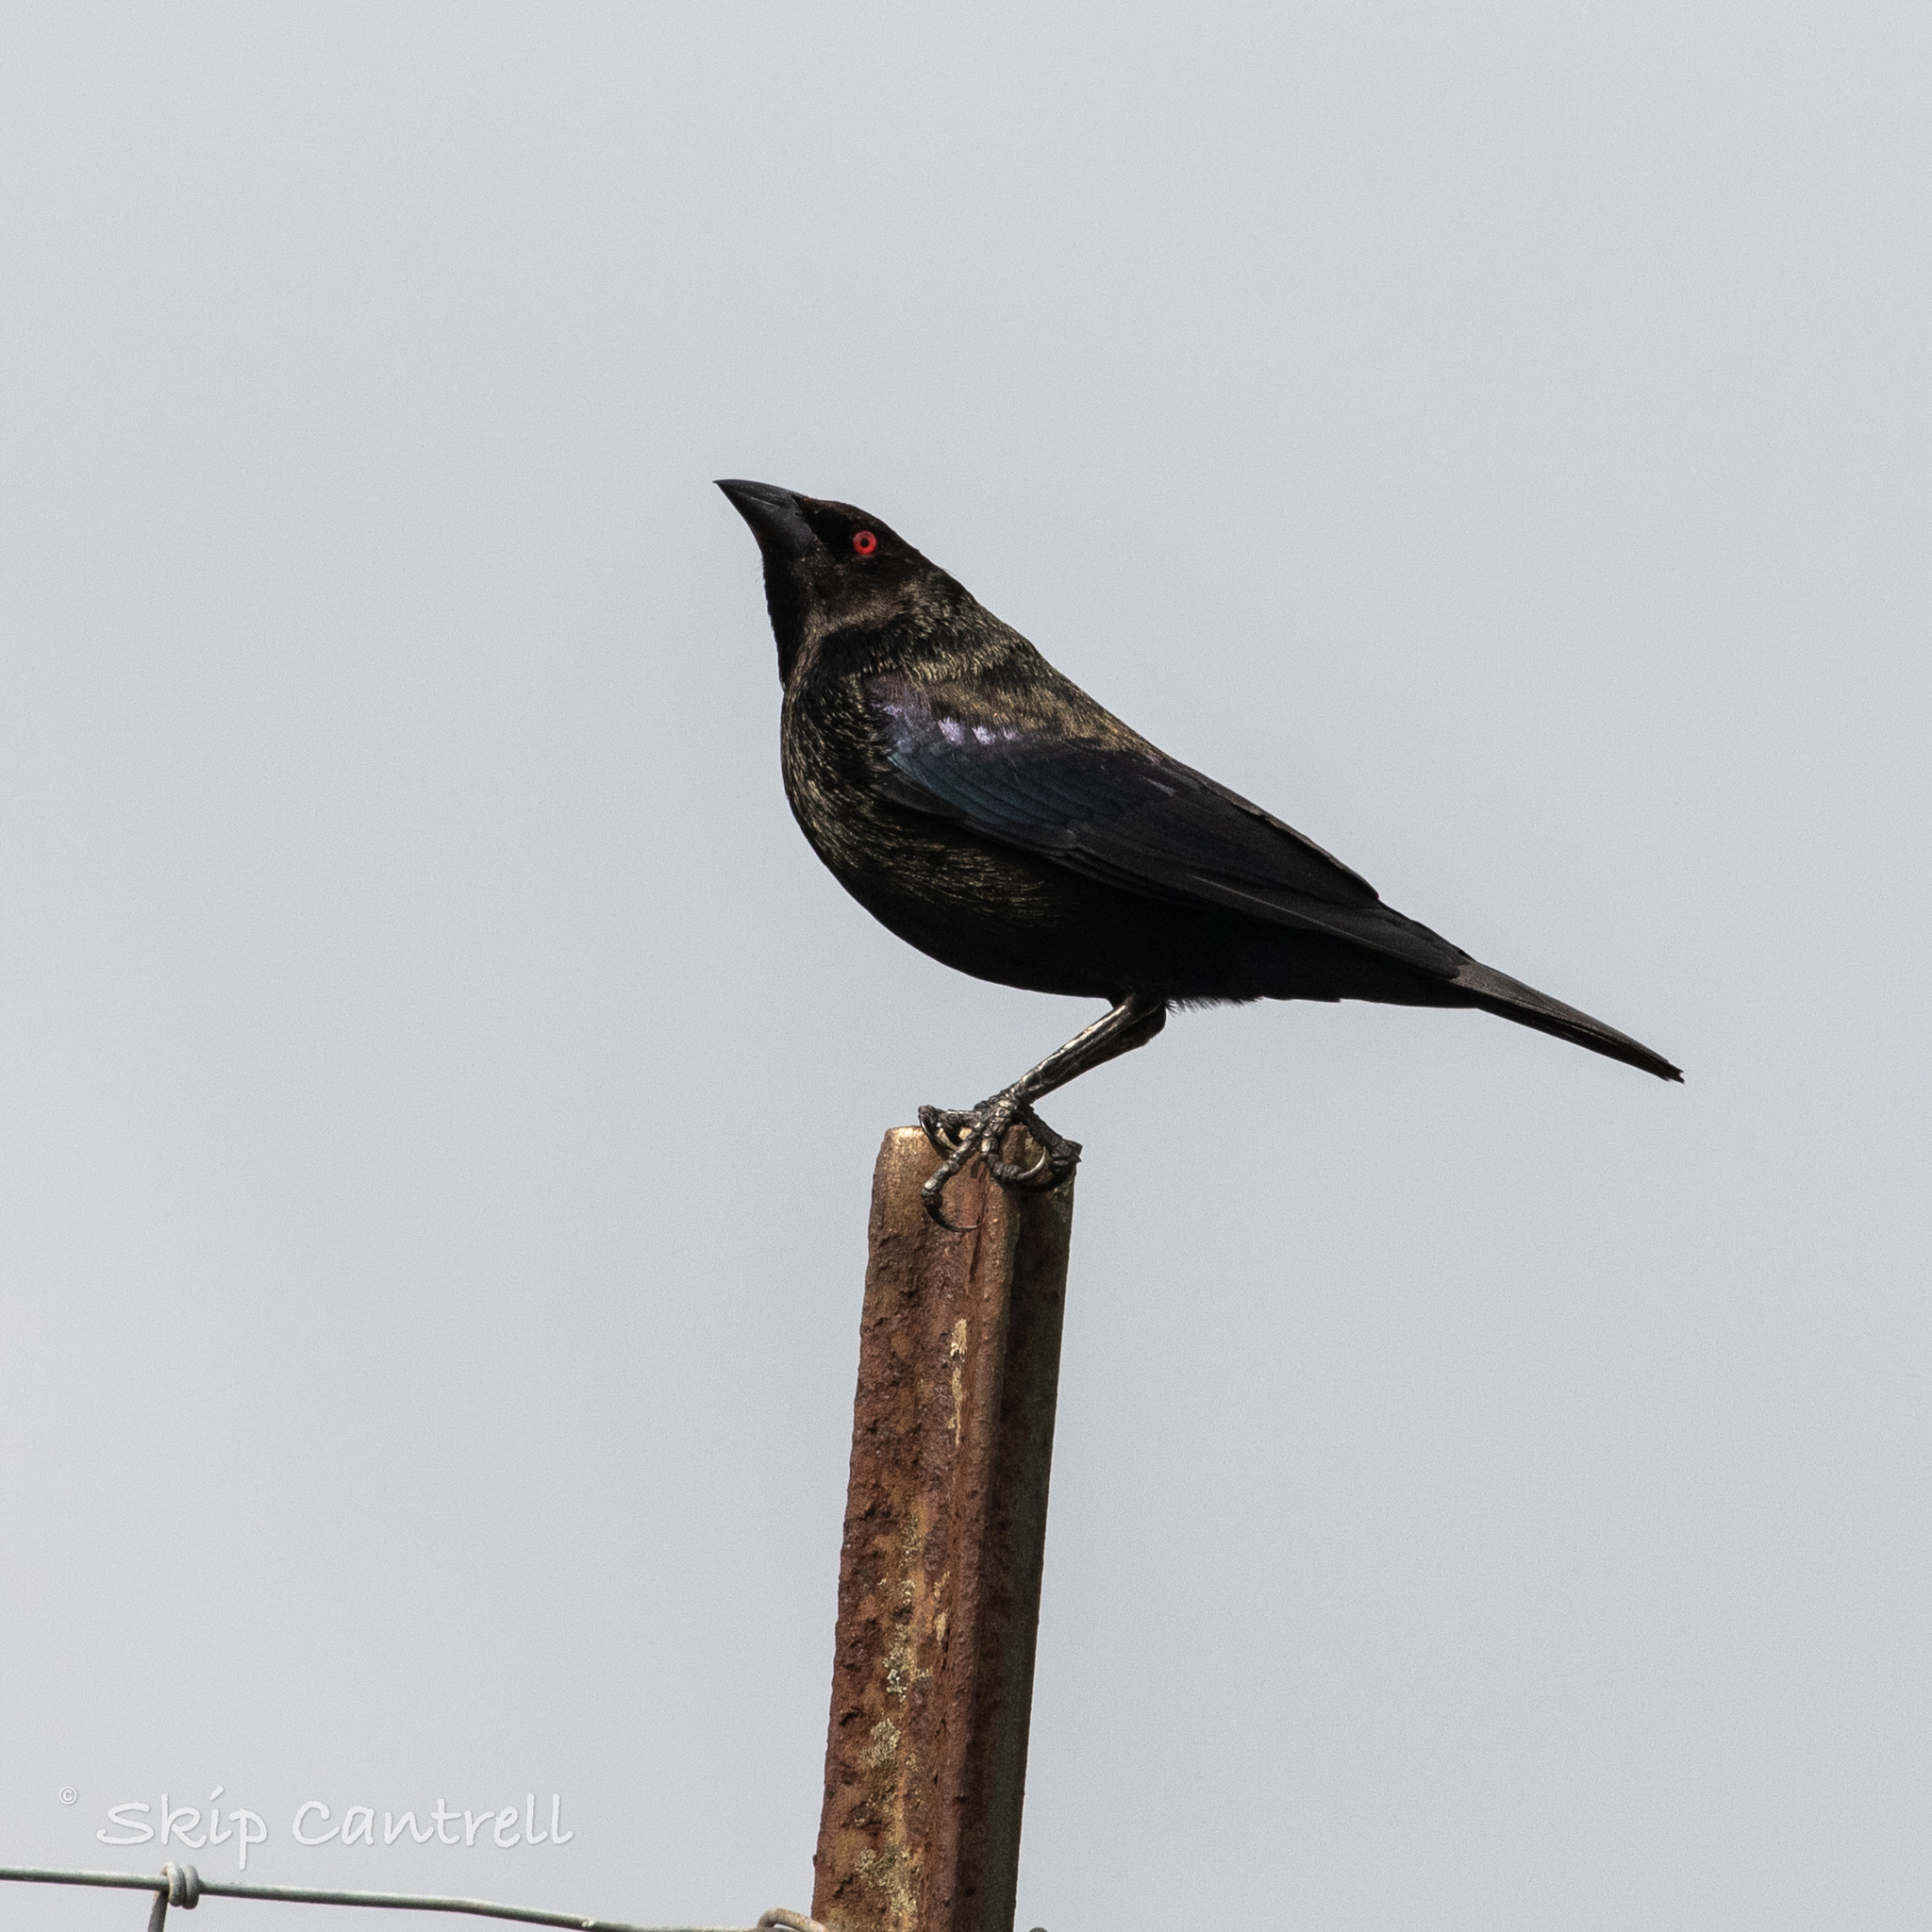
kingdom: Animalia
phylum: Chordata
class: Aves
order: Passeriformes
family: Icteridae
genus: Molothrus
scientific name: Molothrus aeneus
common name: Bronzed cowbird
